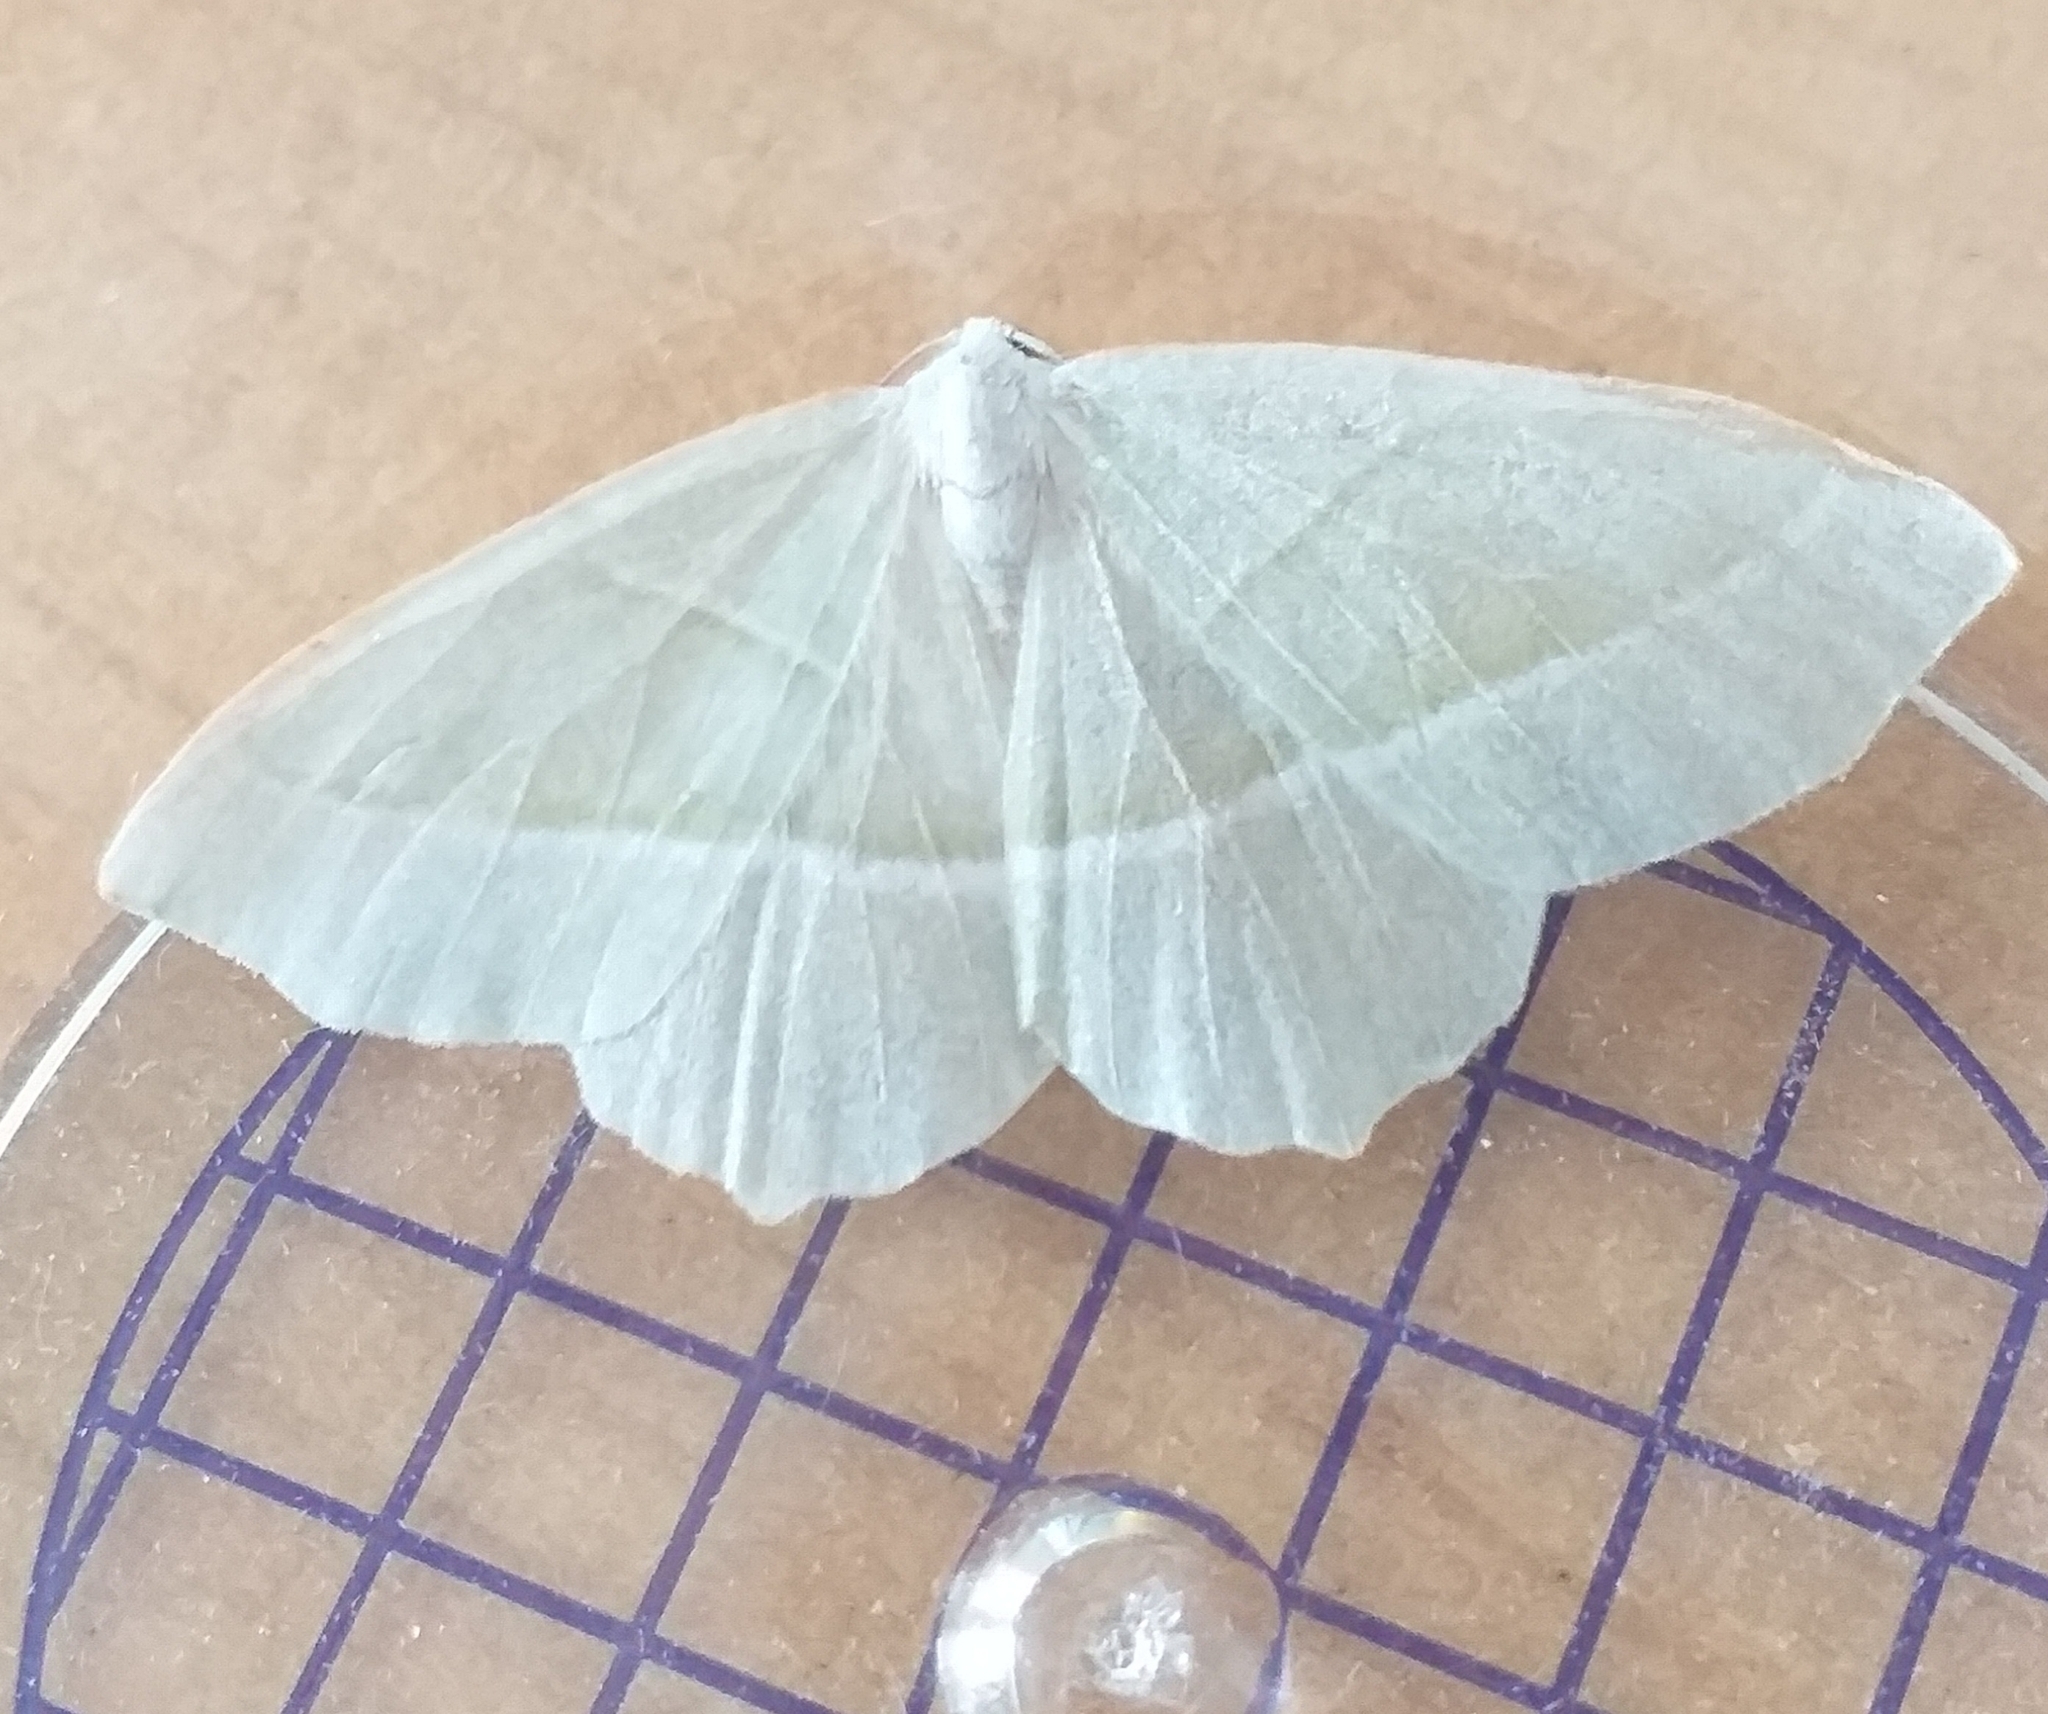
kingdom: Animalia
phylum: Arthropoda
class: Insecta
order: Lepidoptera
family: Geometridae
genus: Campaea
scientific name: Campaea margaritaria
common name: Light emerald
